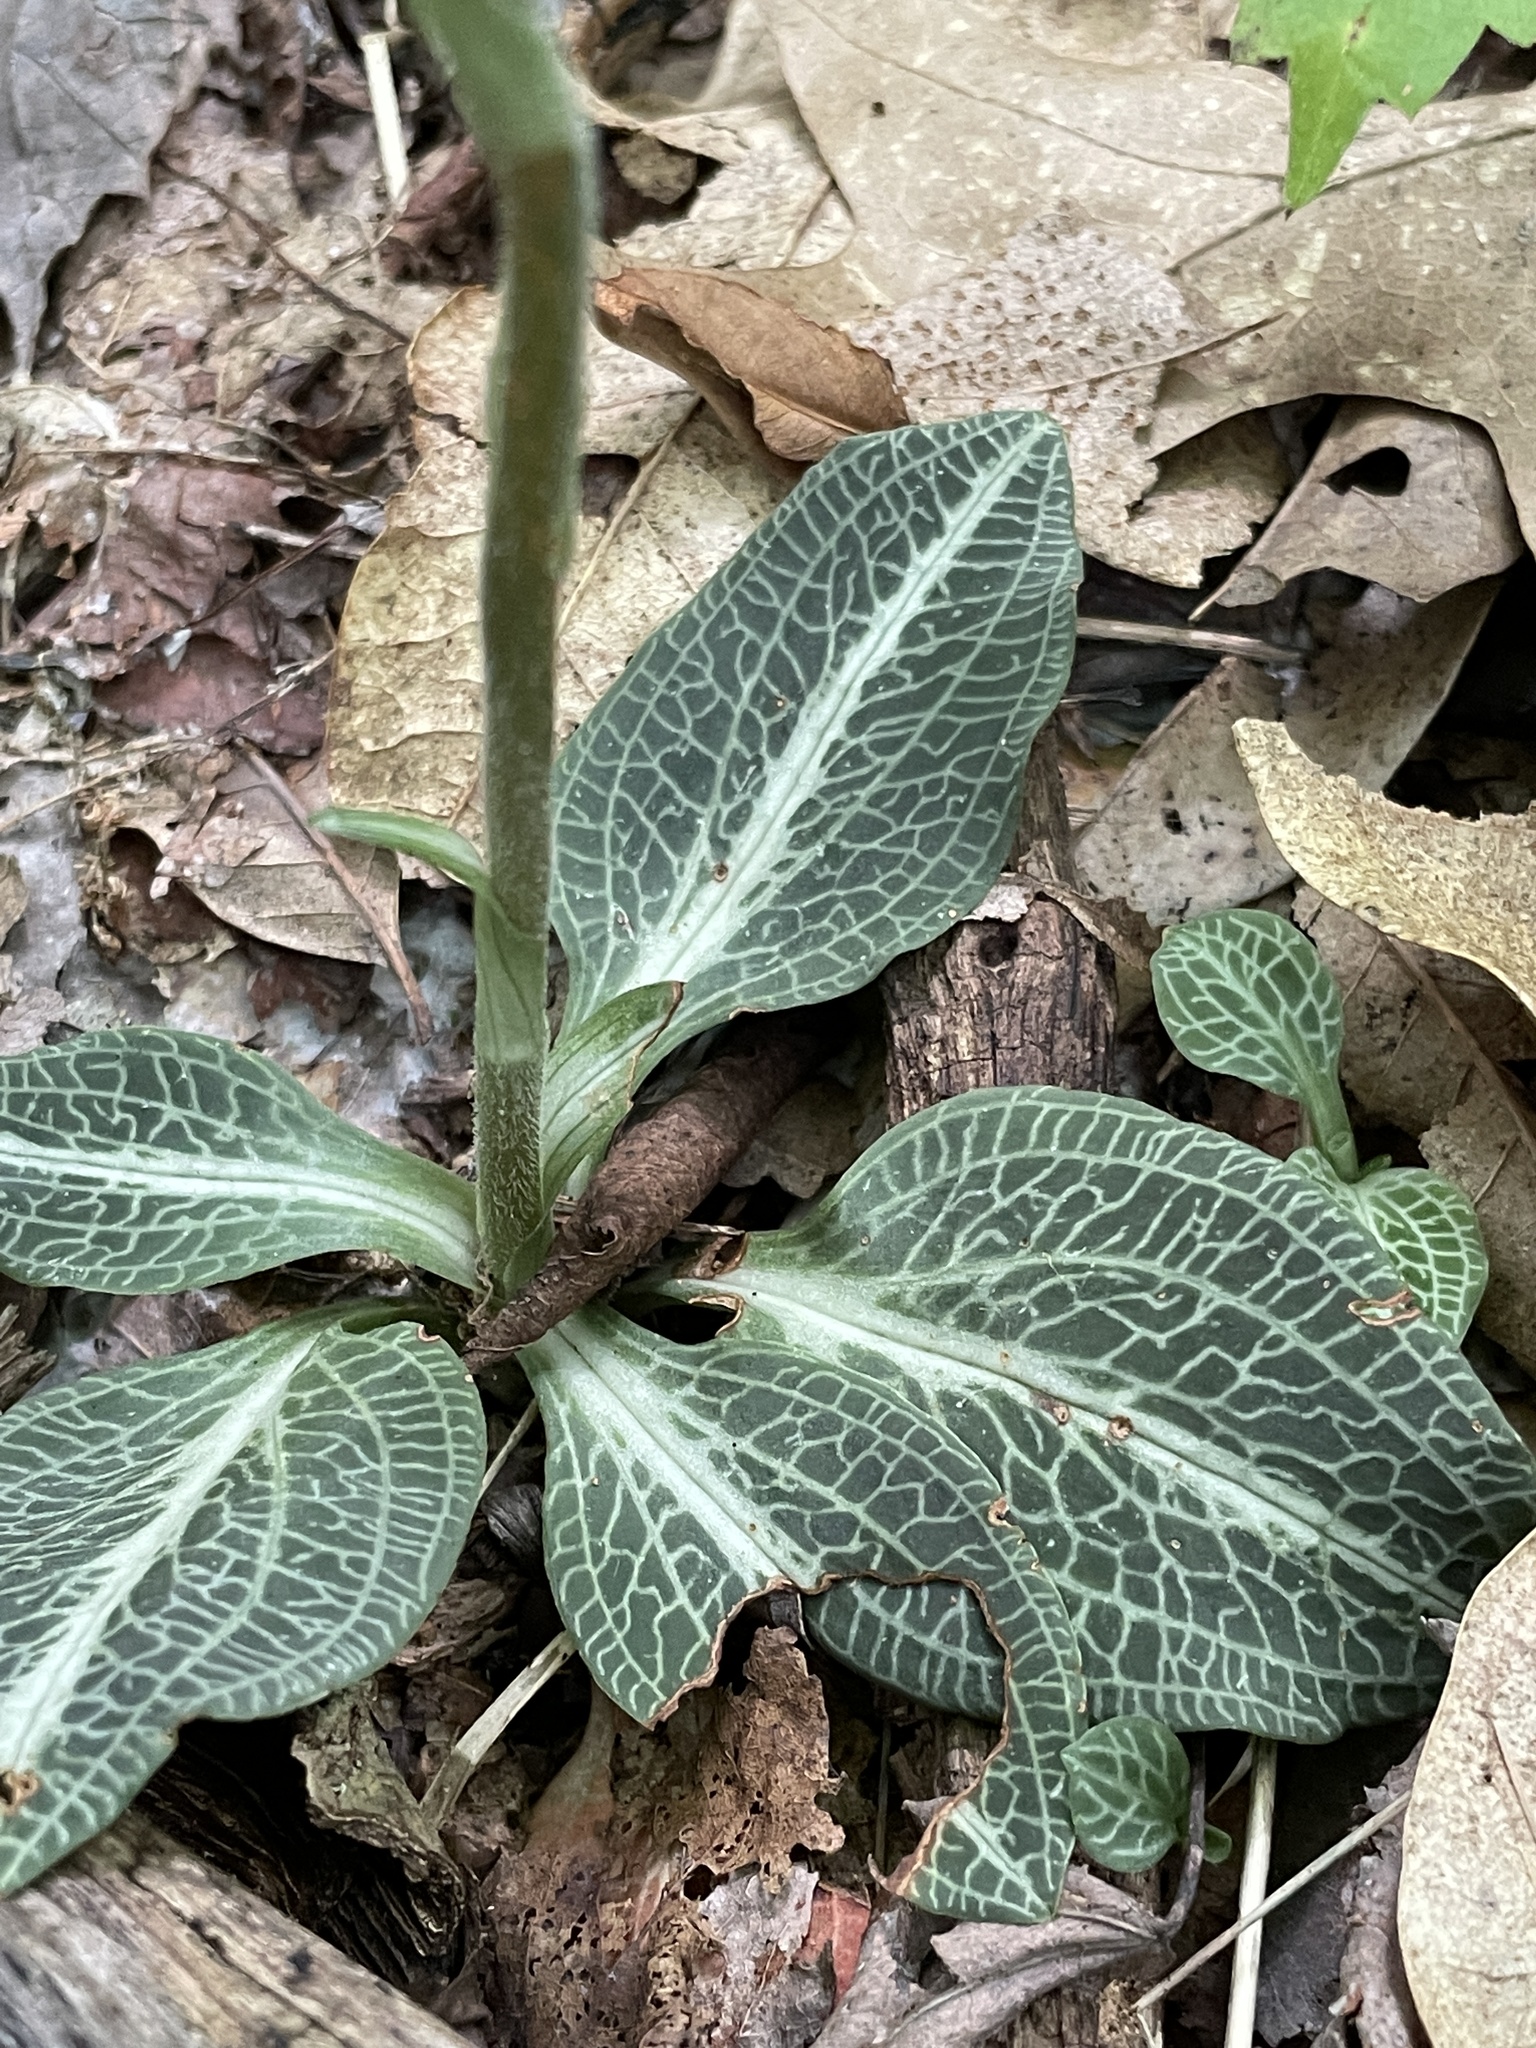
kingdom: Plantae
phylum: Tracheophyta
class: Liliopsida
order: Asparagales
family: Orchidaceae
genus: Goodyera
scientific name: Goodyera pubescens
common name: Downy rattlesnake-plantain
